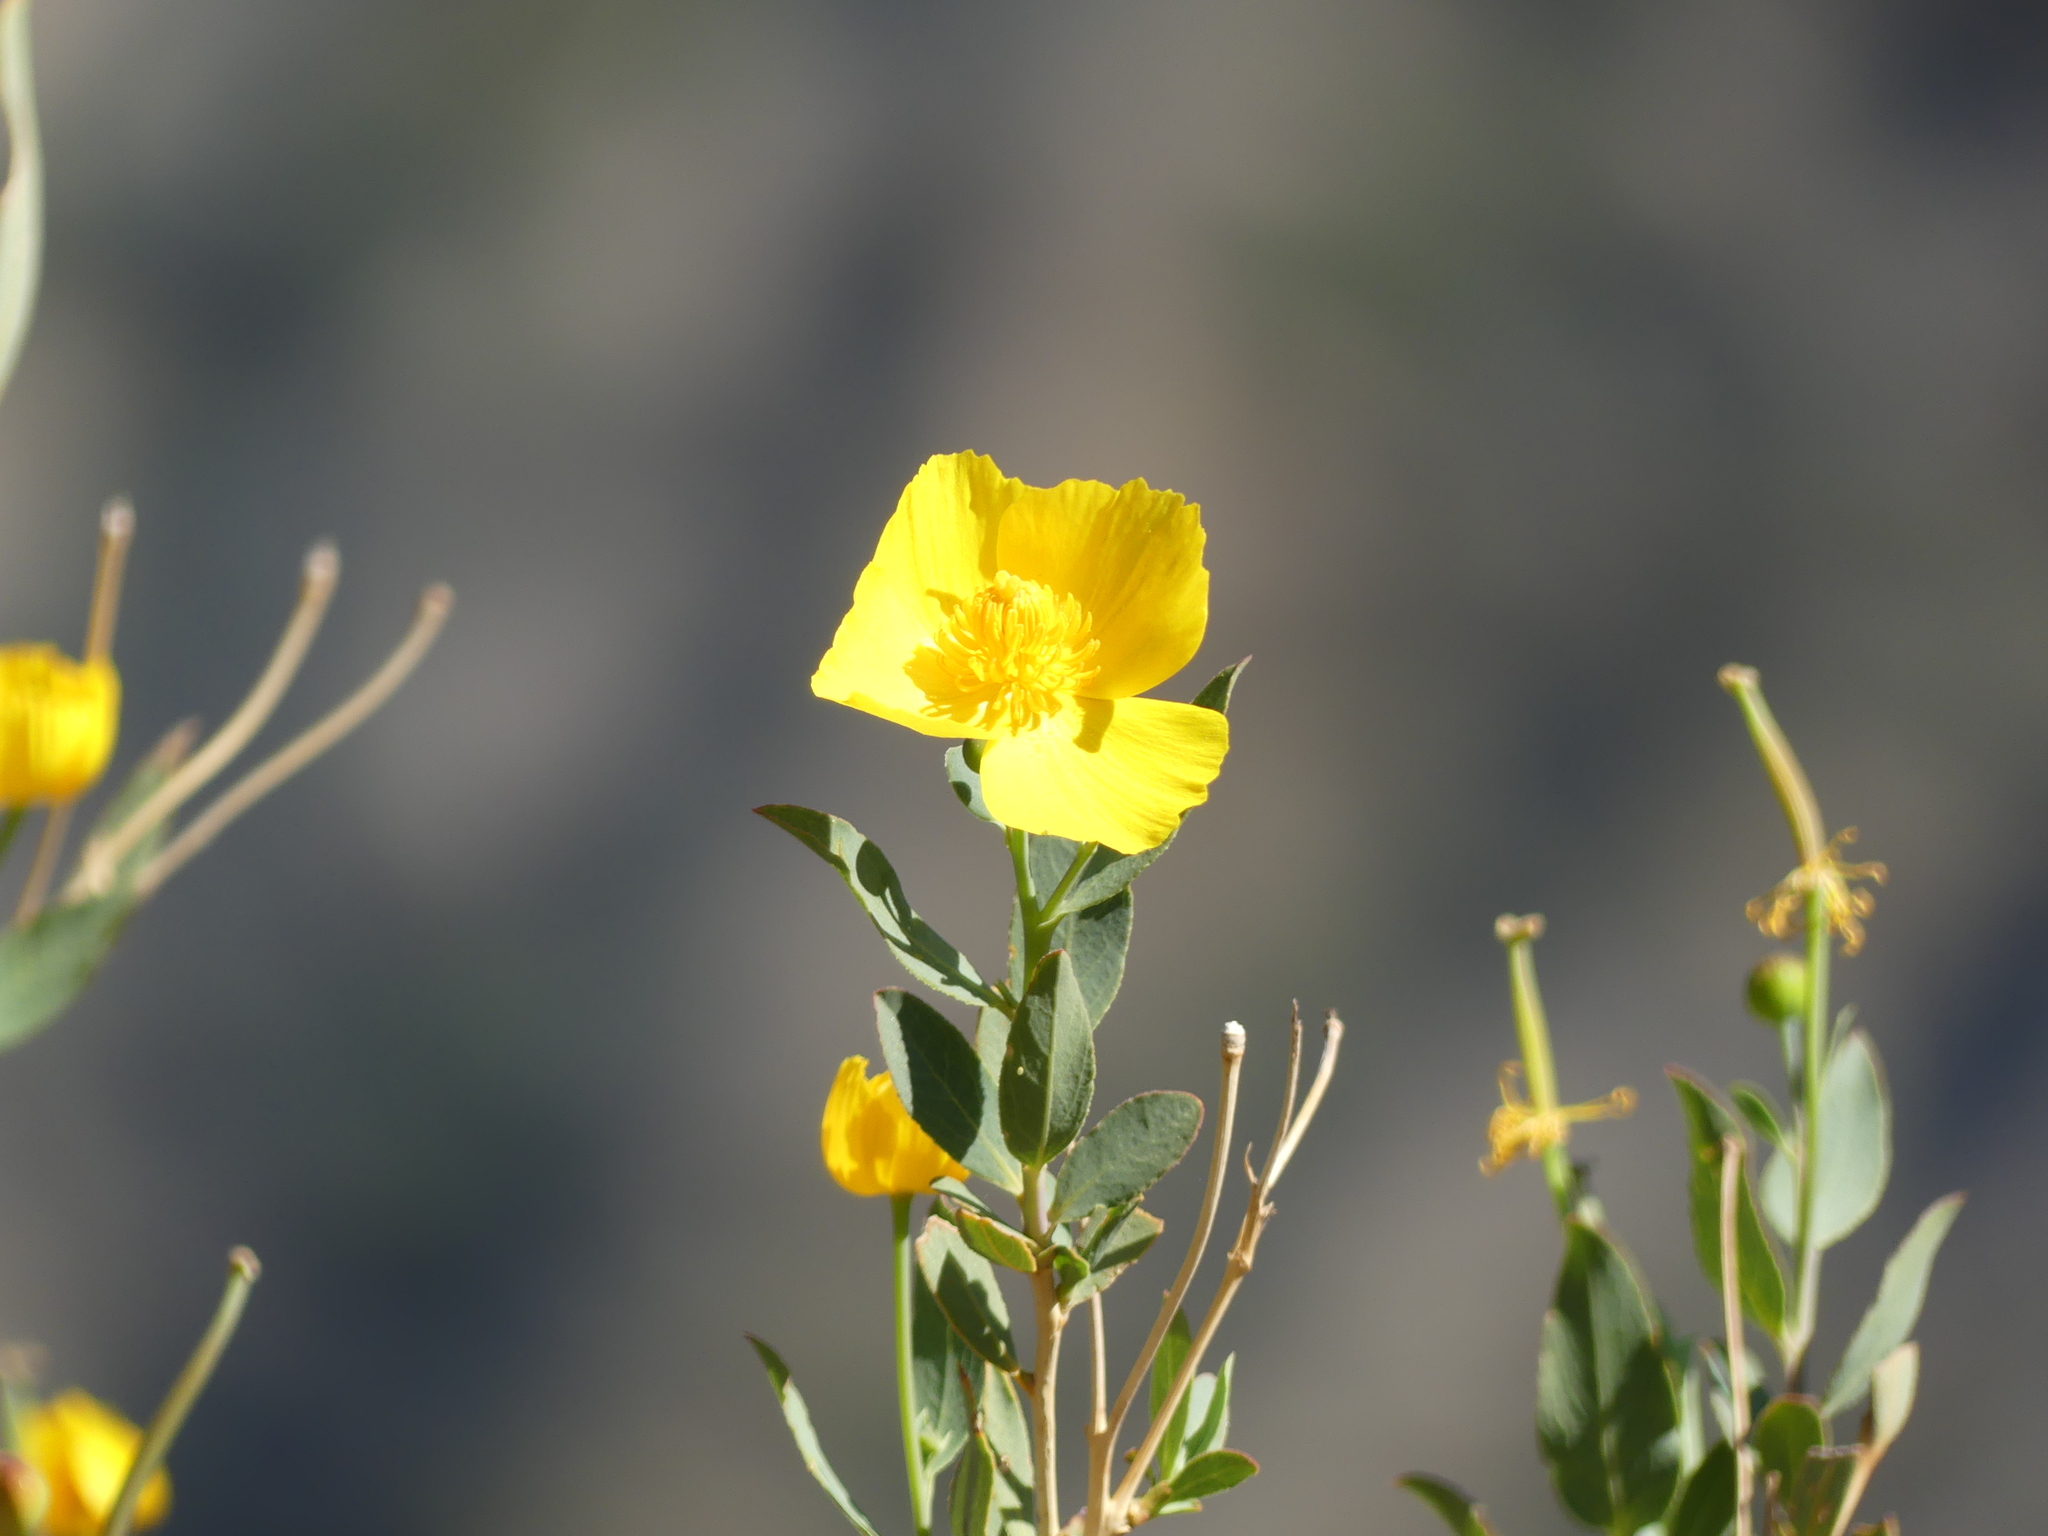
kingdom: Plantae
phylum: Tracheophyta
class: Magnoliopsida
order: Ranunculales
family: Papaveraceae
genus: Dendromecon
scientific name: Dendromecon rigida
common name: Tree poppy
